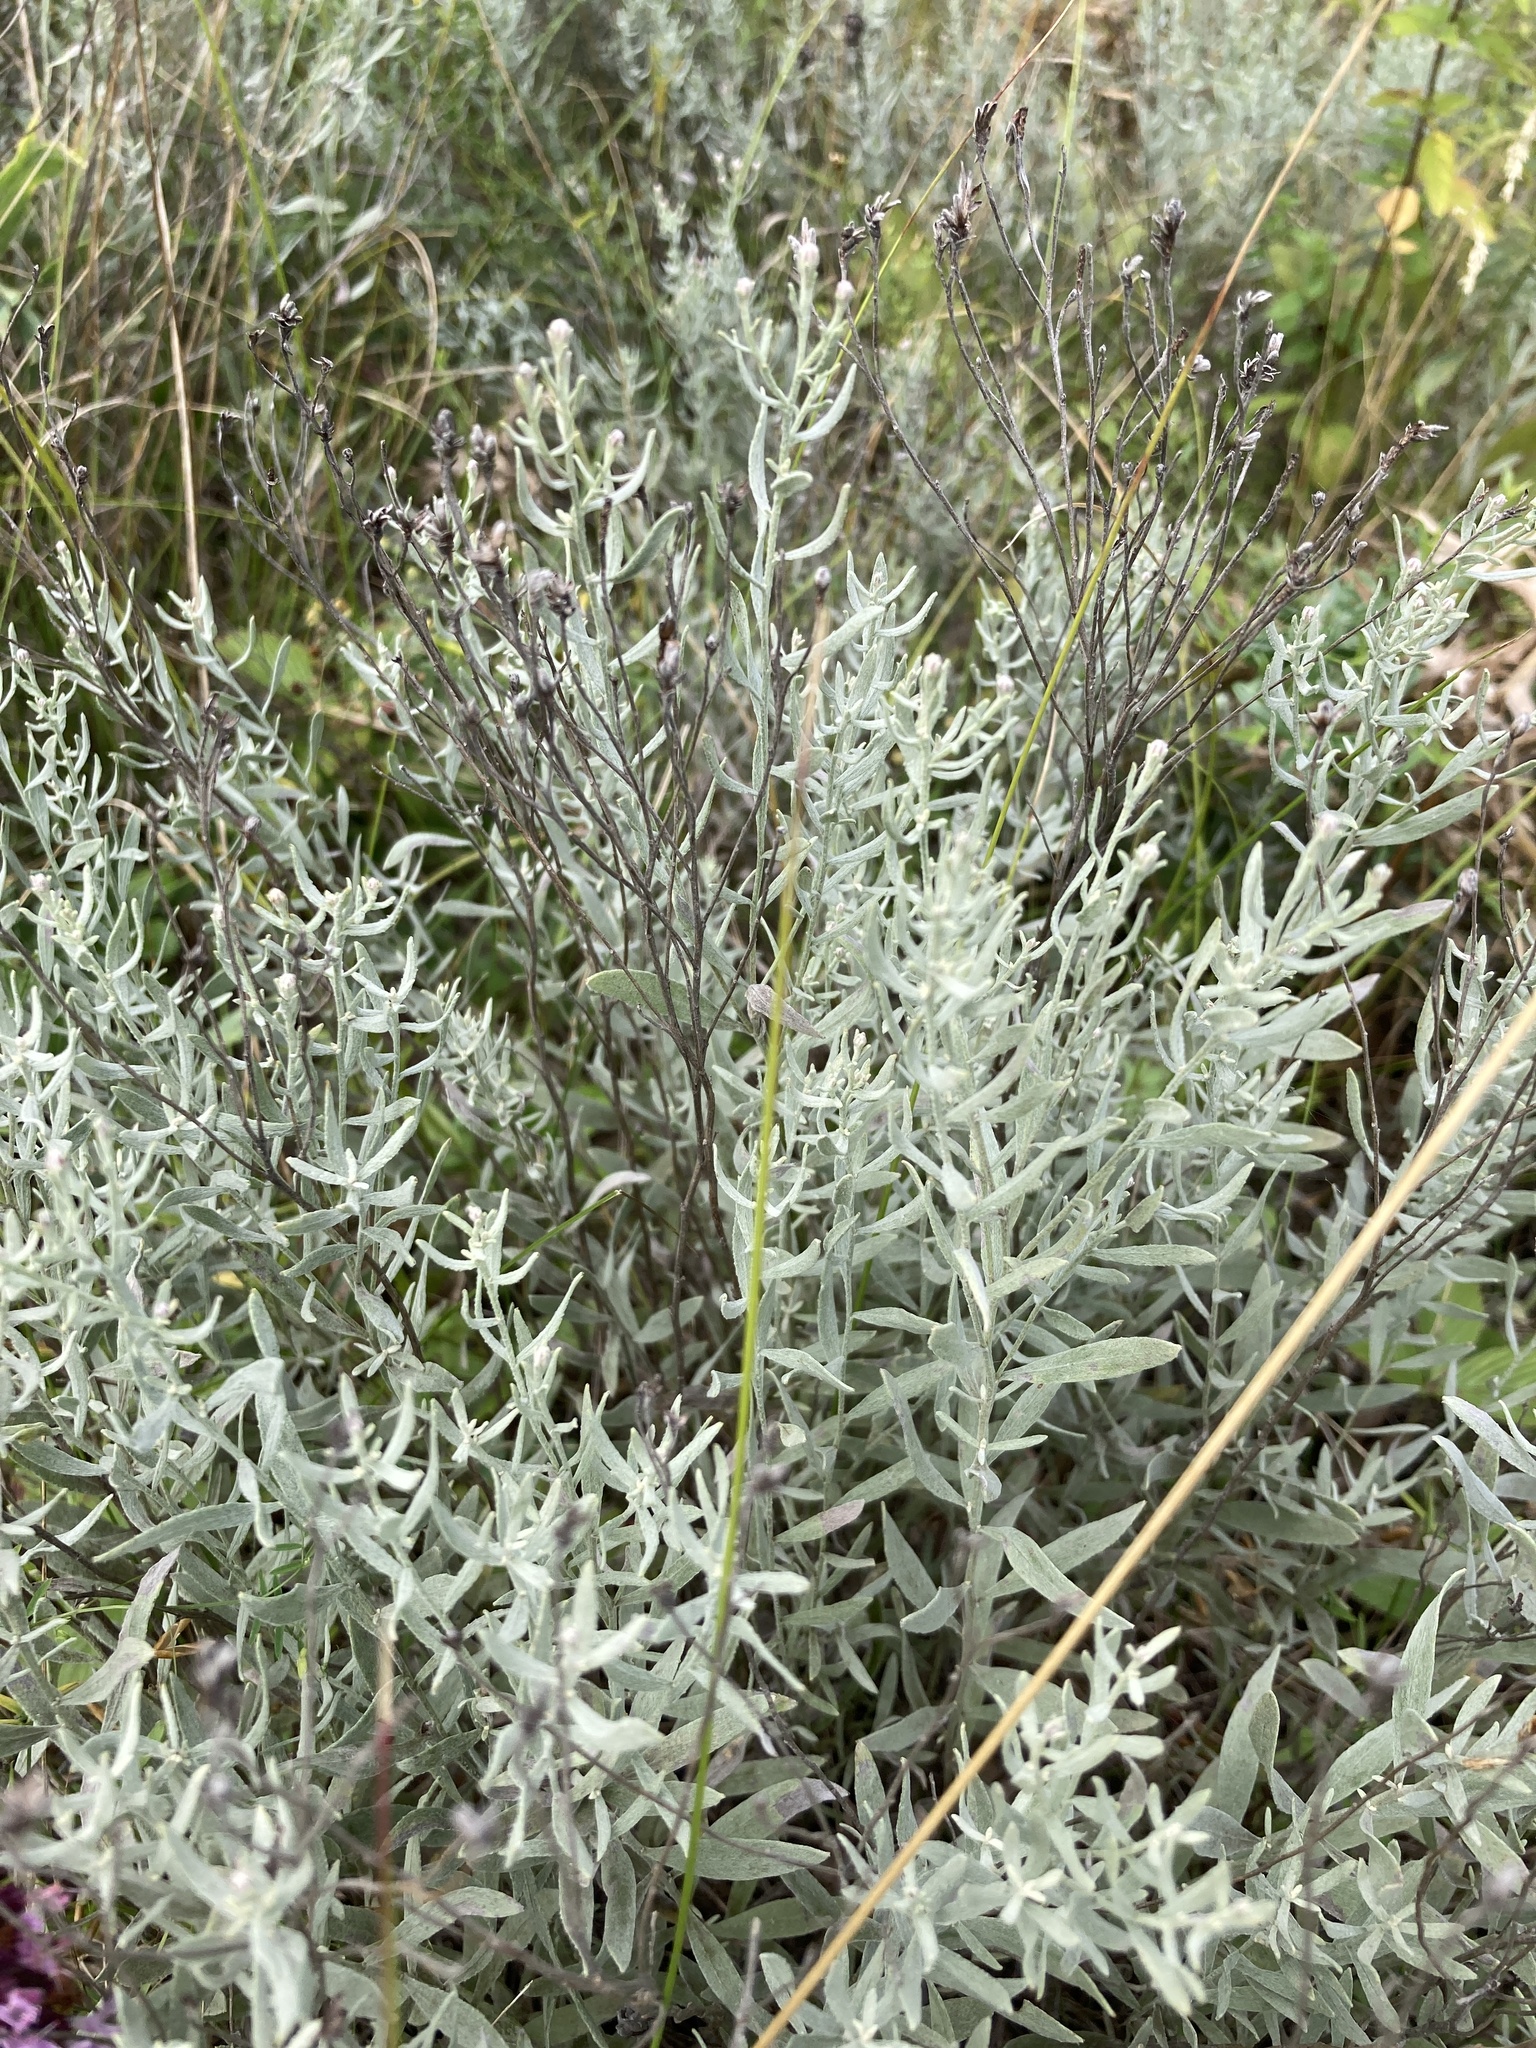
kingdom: Plantae
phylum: Tracheophyta
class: Magnoliopsida
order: Asterales
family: Asteraceae
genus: Galatella
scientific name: Galatella villosa
